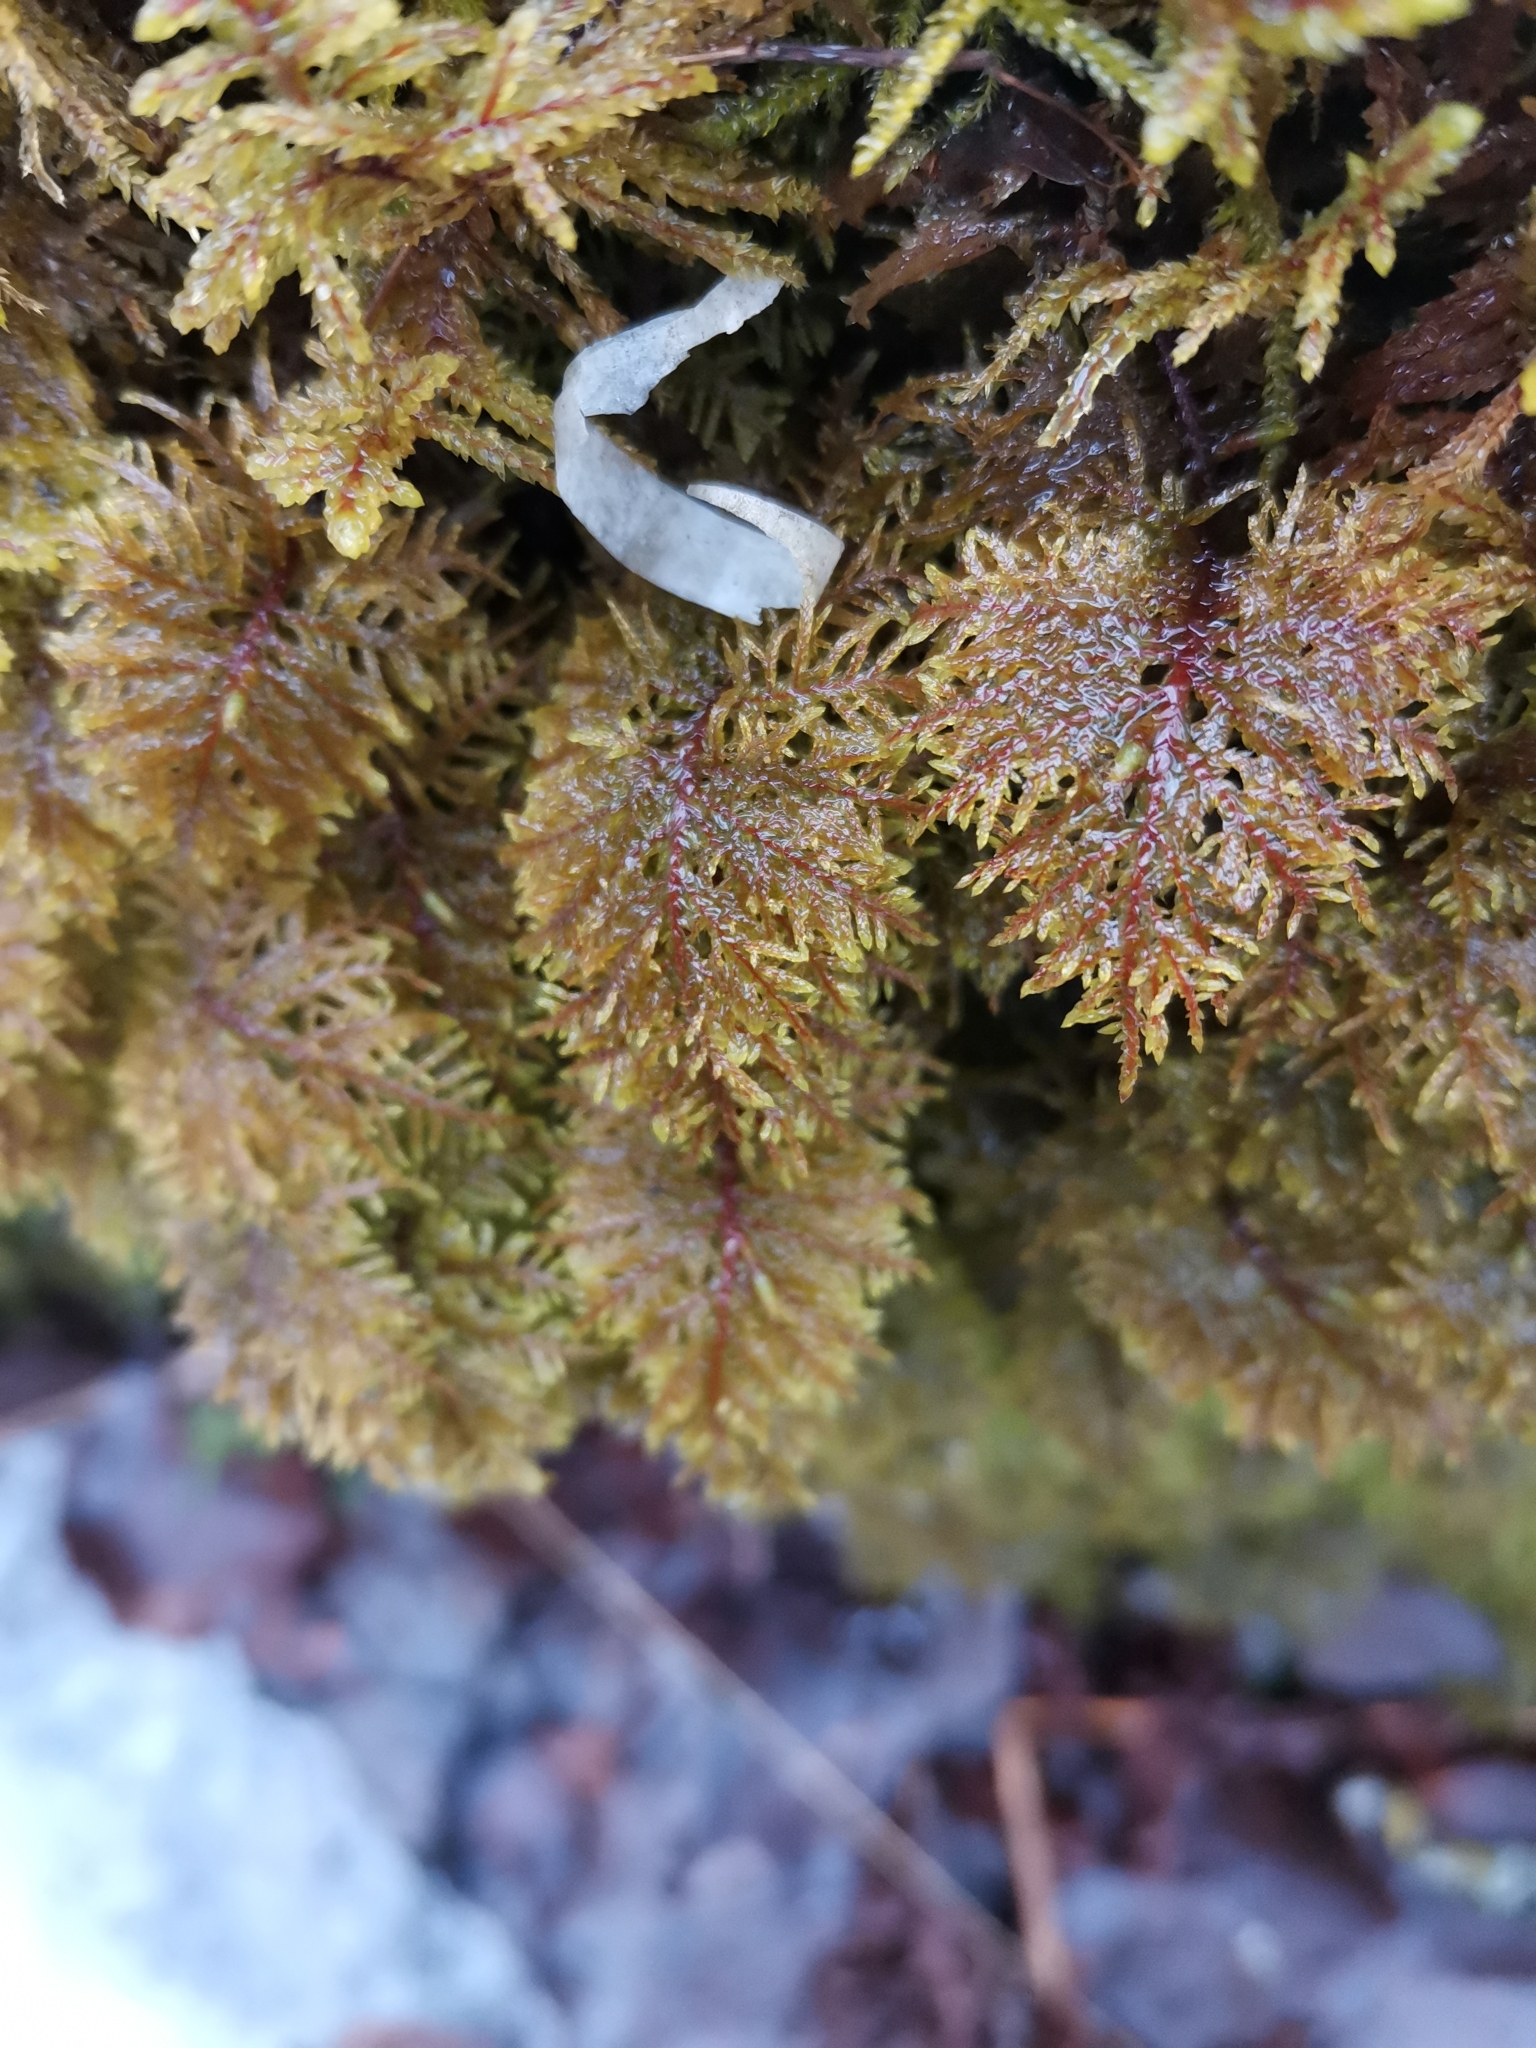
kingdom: Plantae
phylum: Bryophyta
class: Bryopsida
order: Hypnales
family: Hylocomiaceae
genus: Hylocomium
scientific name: Hylocomium splendens
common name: Stairstep moss
